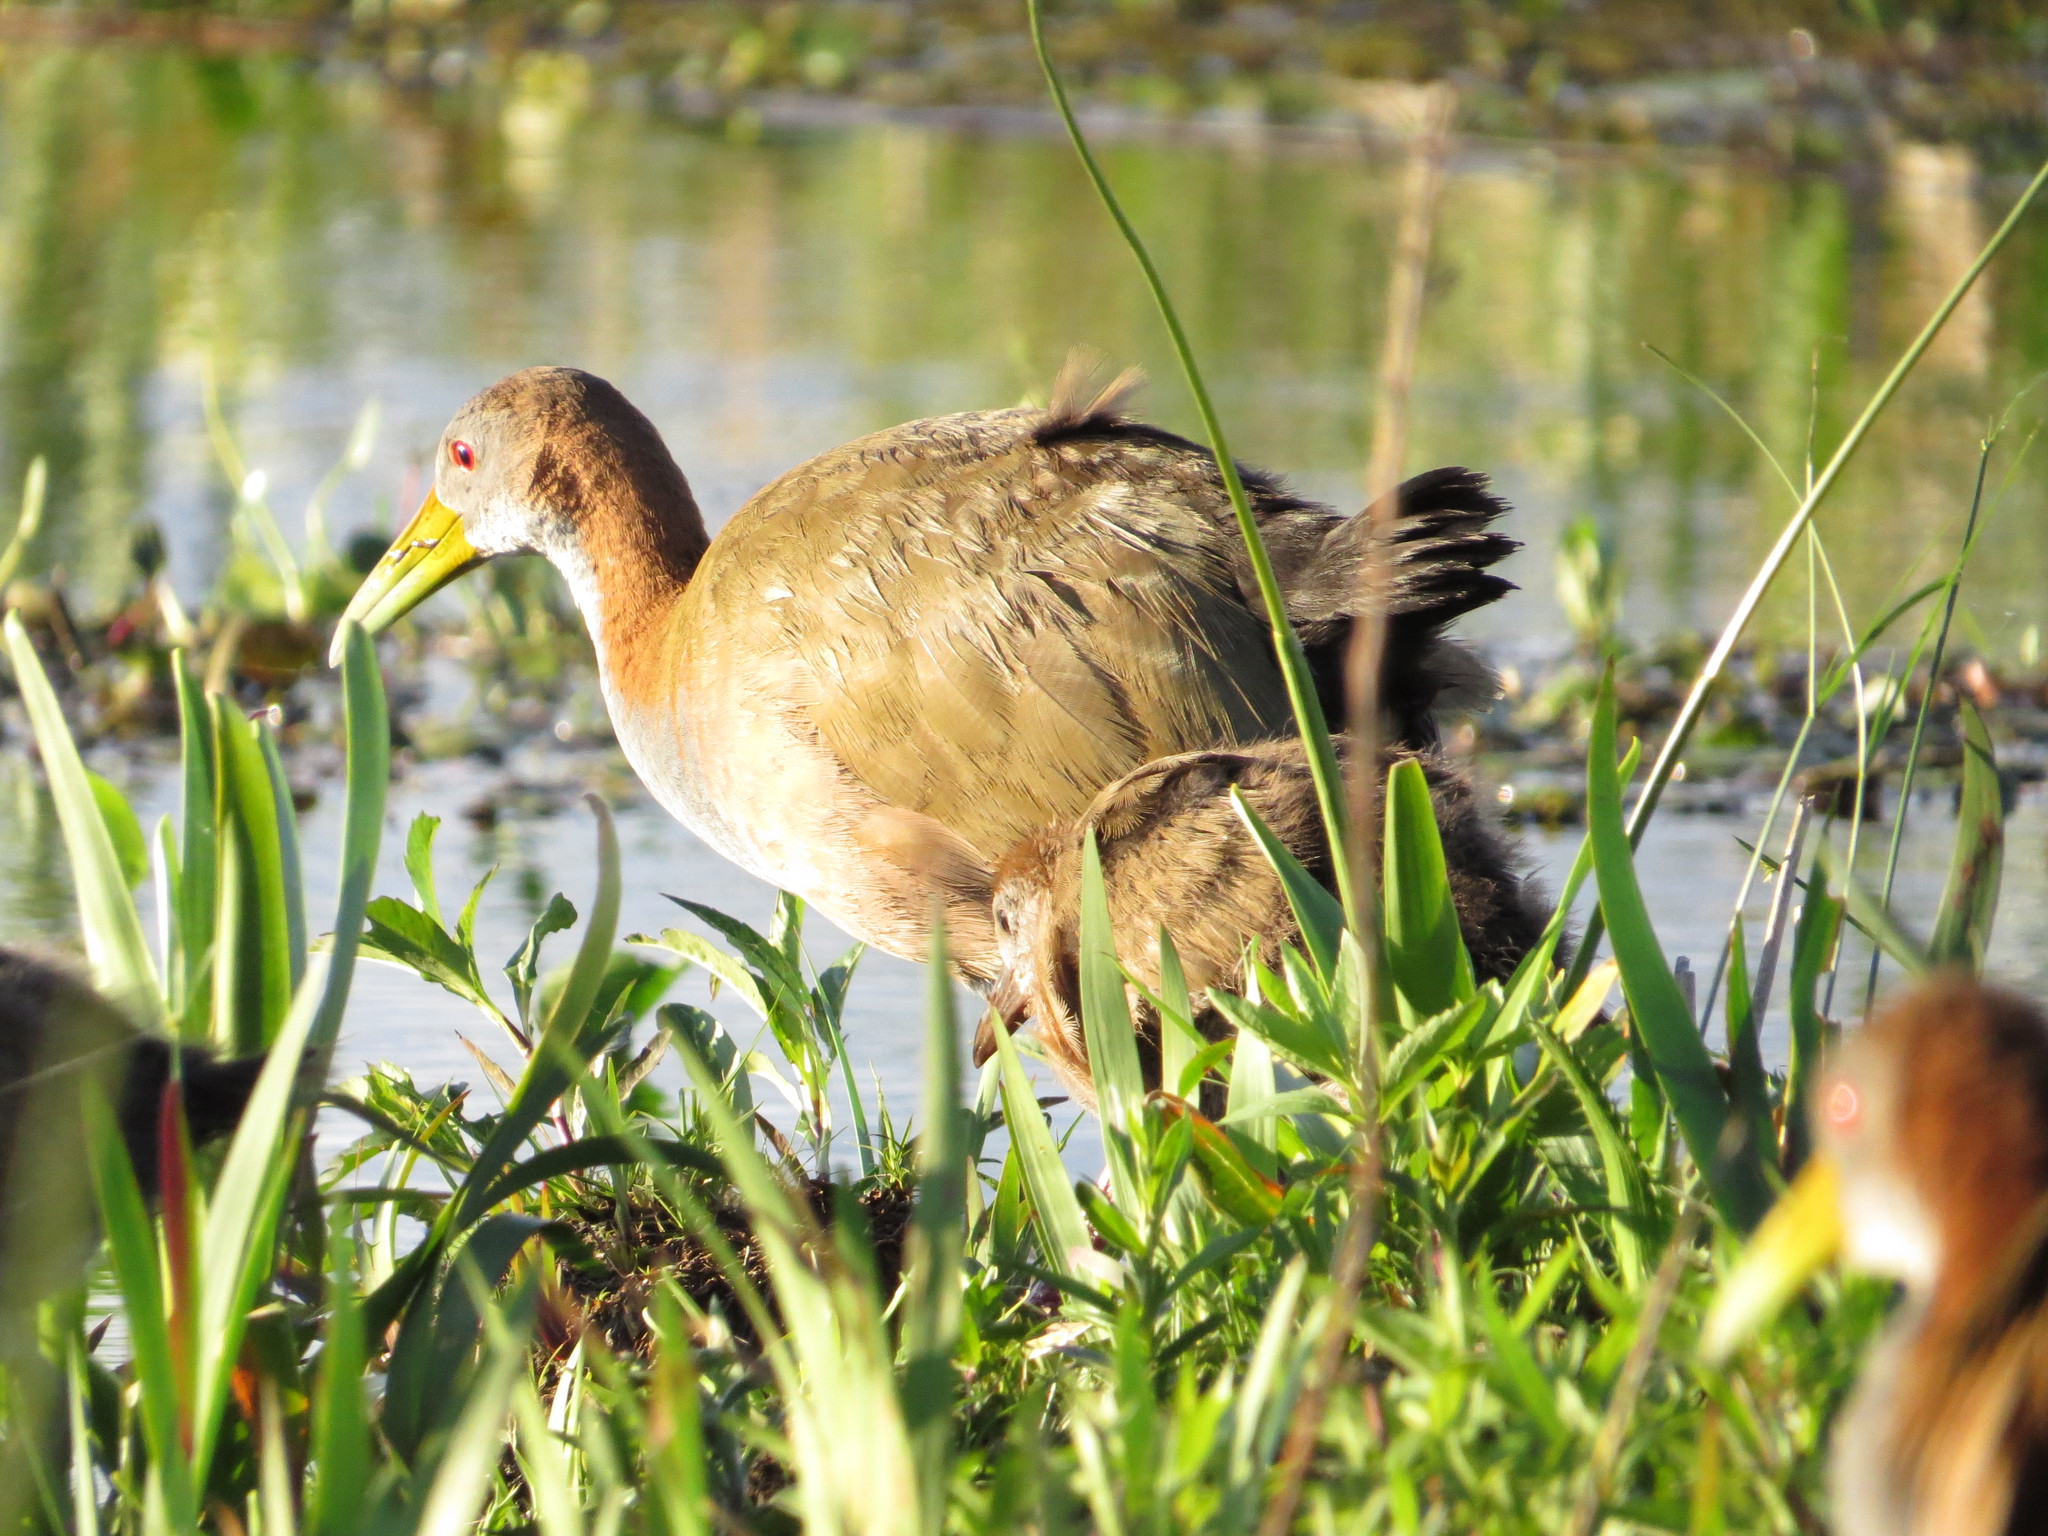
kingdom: Animalia
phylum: Chordata
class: Aves
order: Gruiformes
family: Rallidae
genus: Aramides
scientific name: Aramides ypecaha
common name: Giant wood rail
